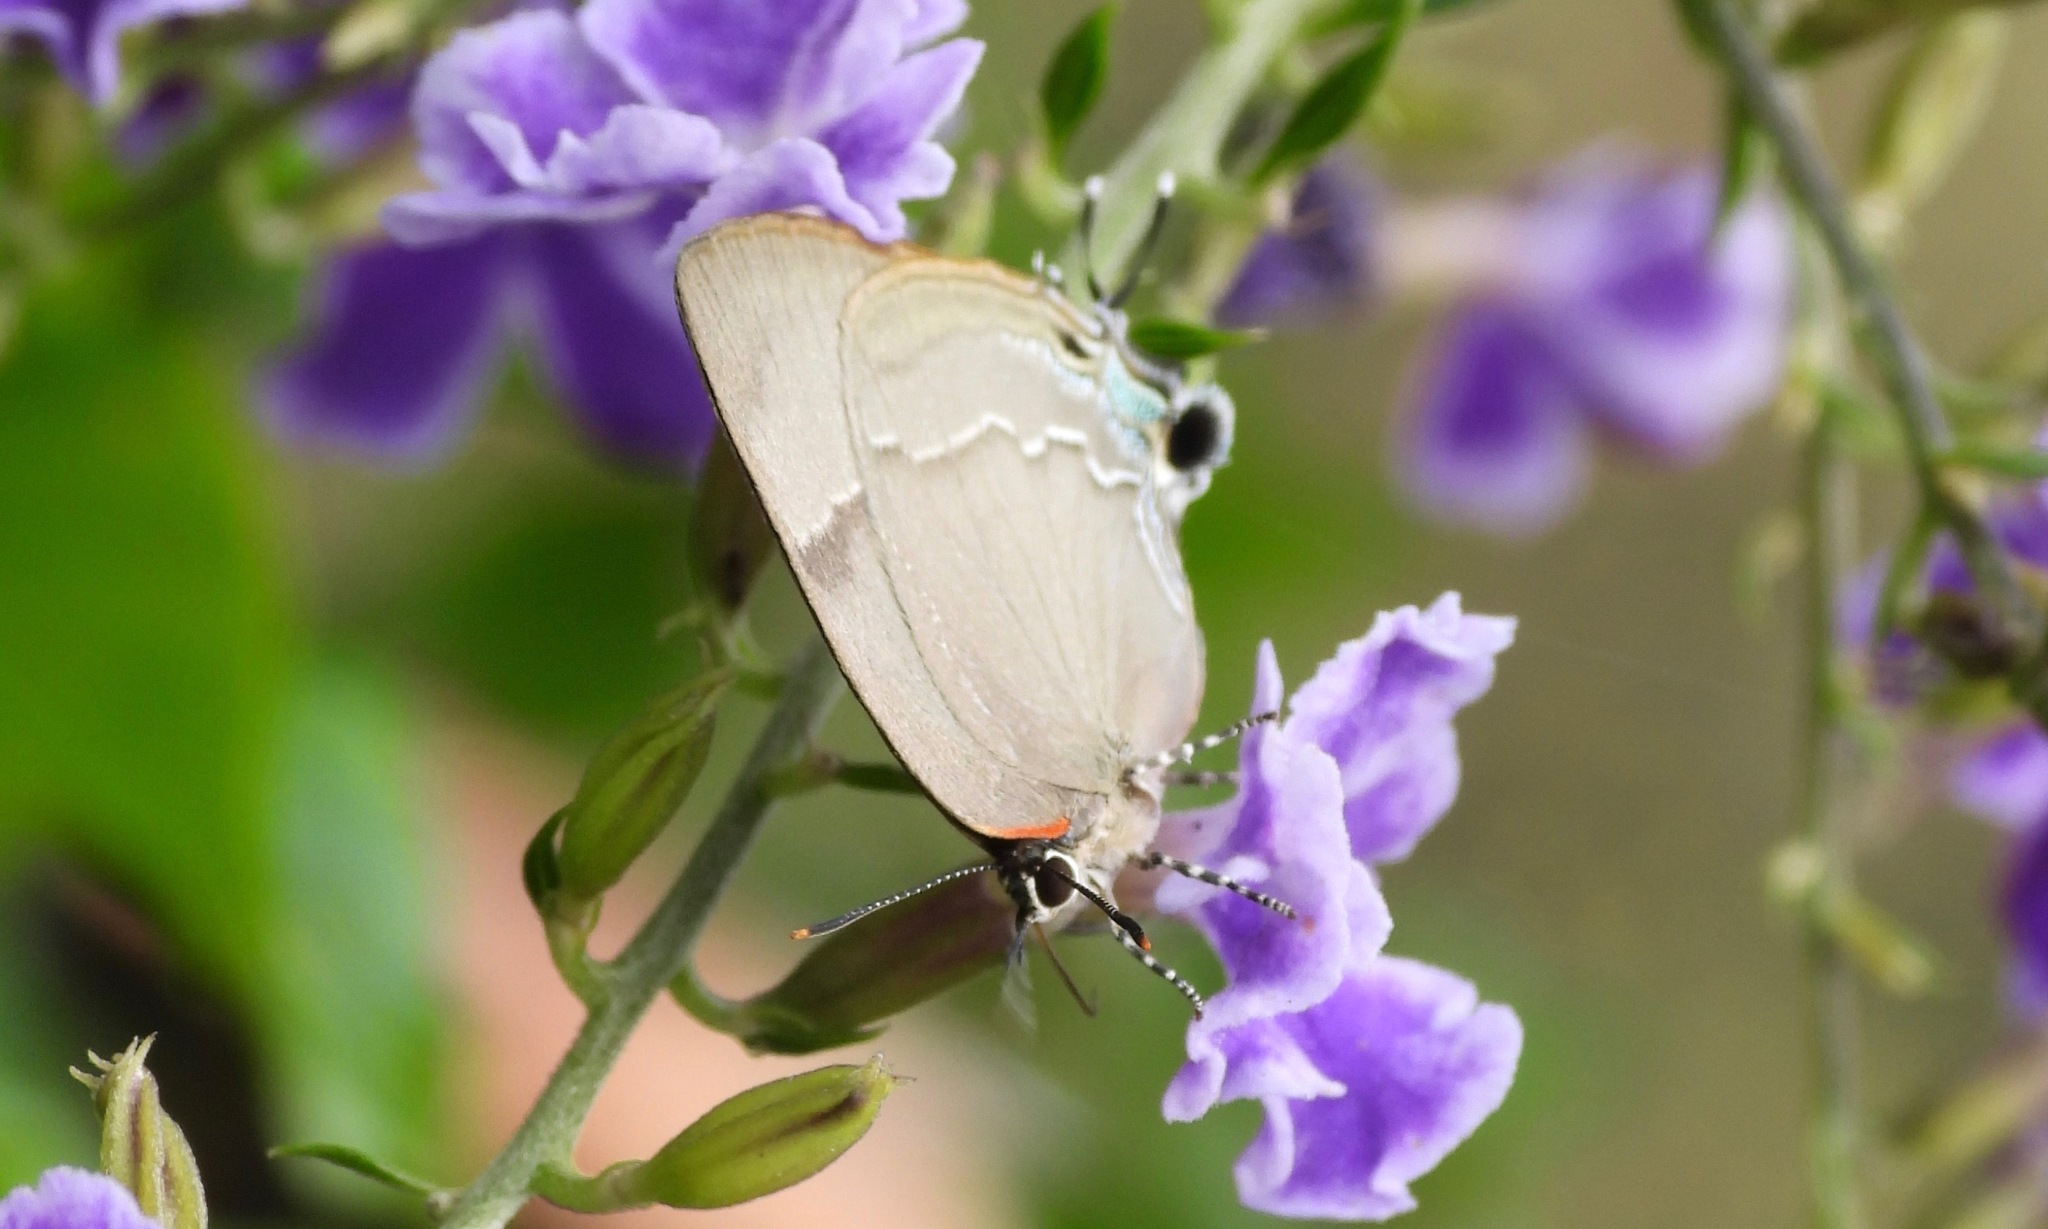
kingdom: Animalia
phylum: Arthropoda
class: Insecta
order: Lepidoptera
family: Lycaenidae
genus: Panthiades
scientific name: Panthiades bitias
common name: Bitias hairstreak
